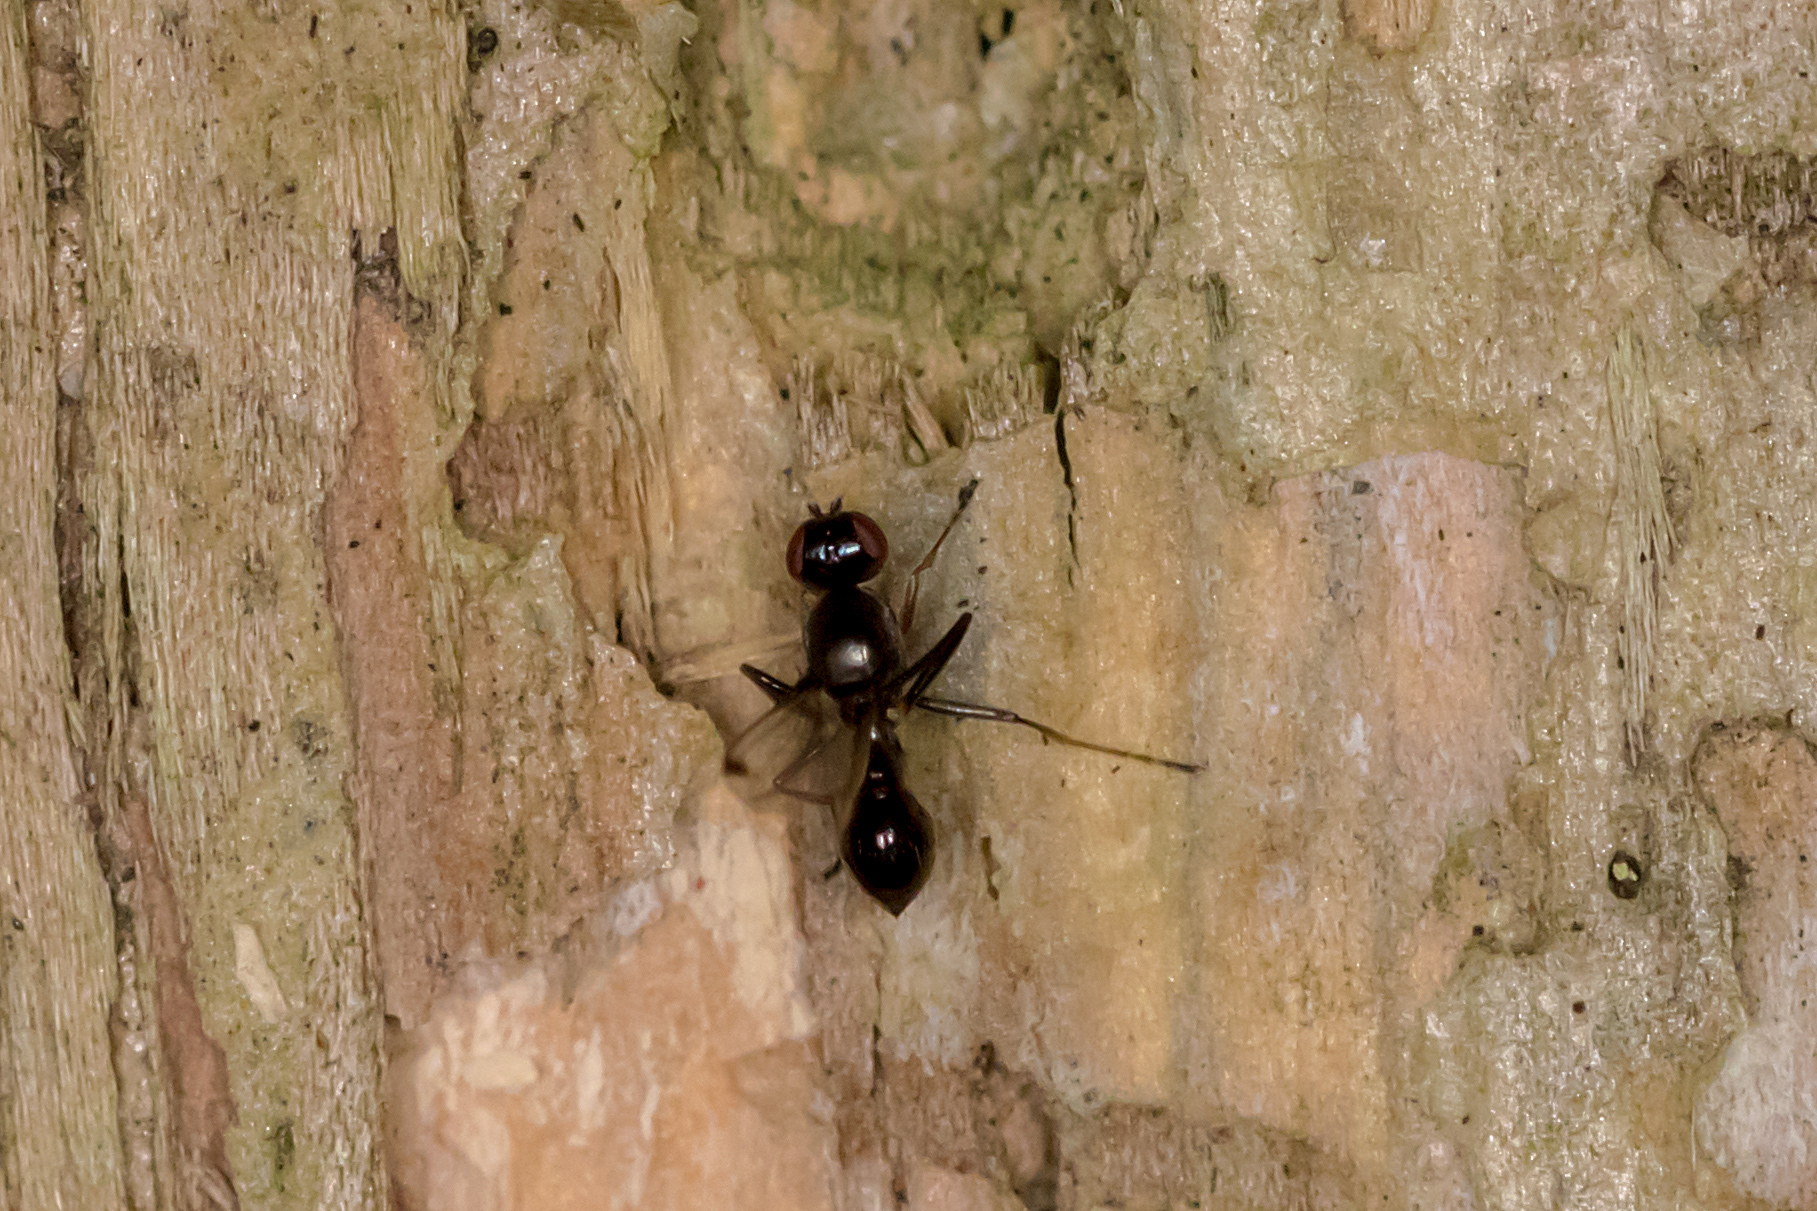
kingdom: Animalia
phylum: Arthropoda
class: Insecta
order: Diptera
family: Sepsidae
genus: Parapalaeosepsis
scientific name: Parapalaeosepsis plebeia
